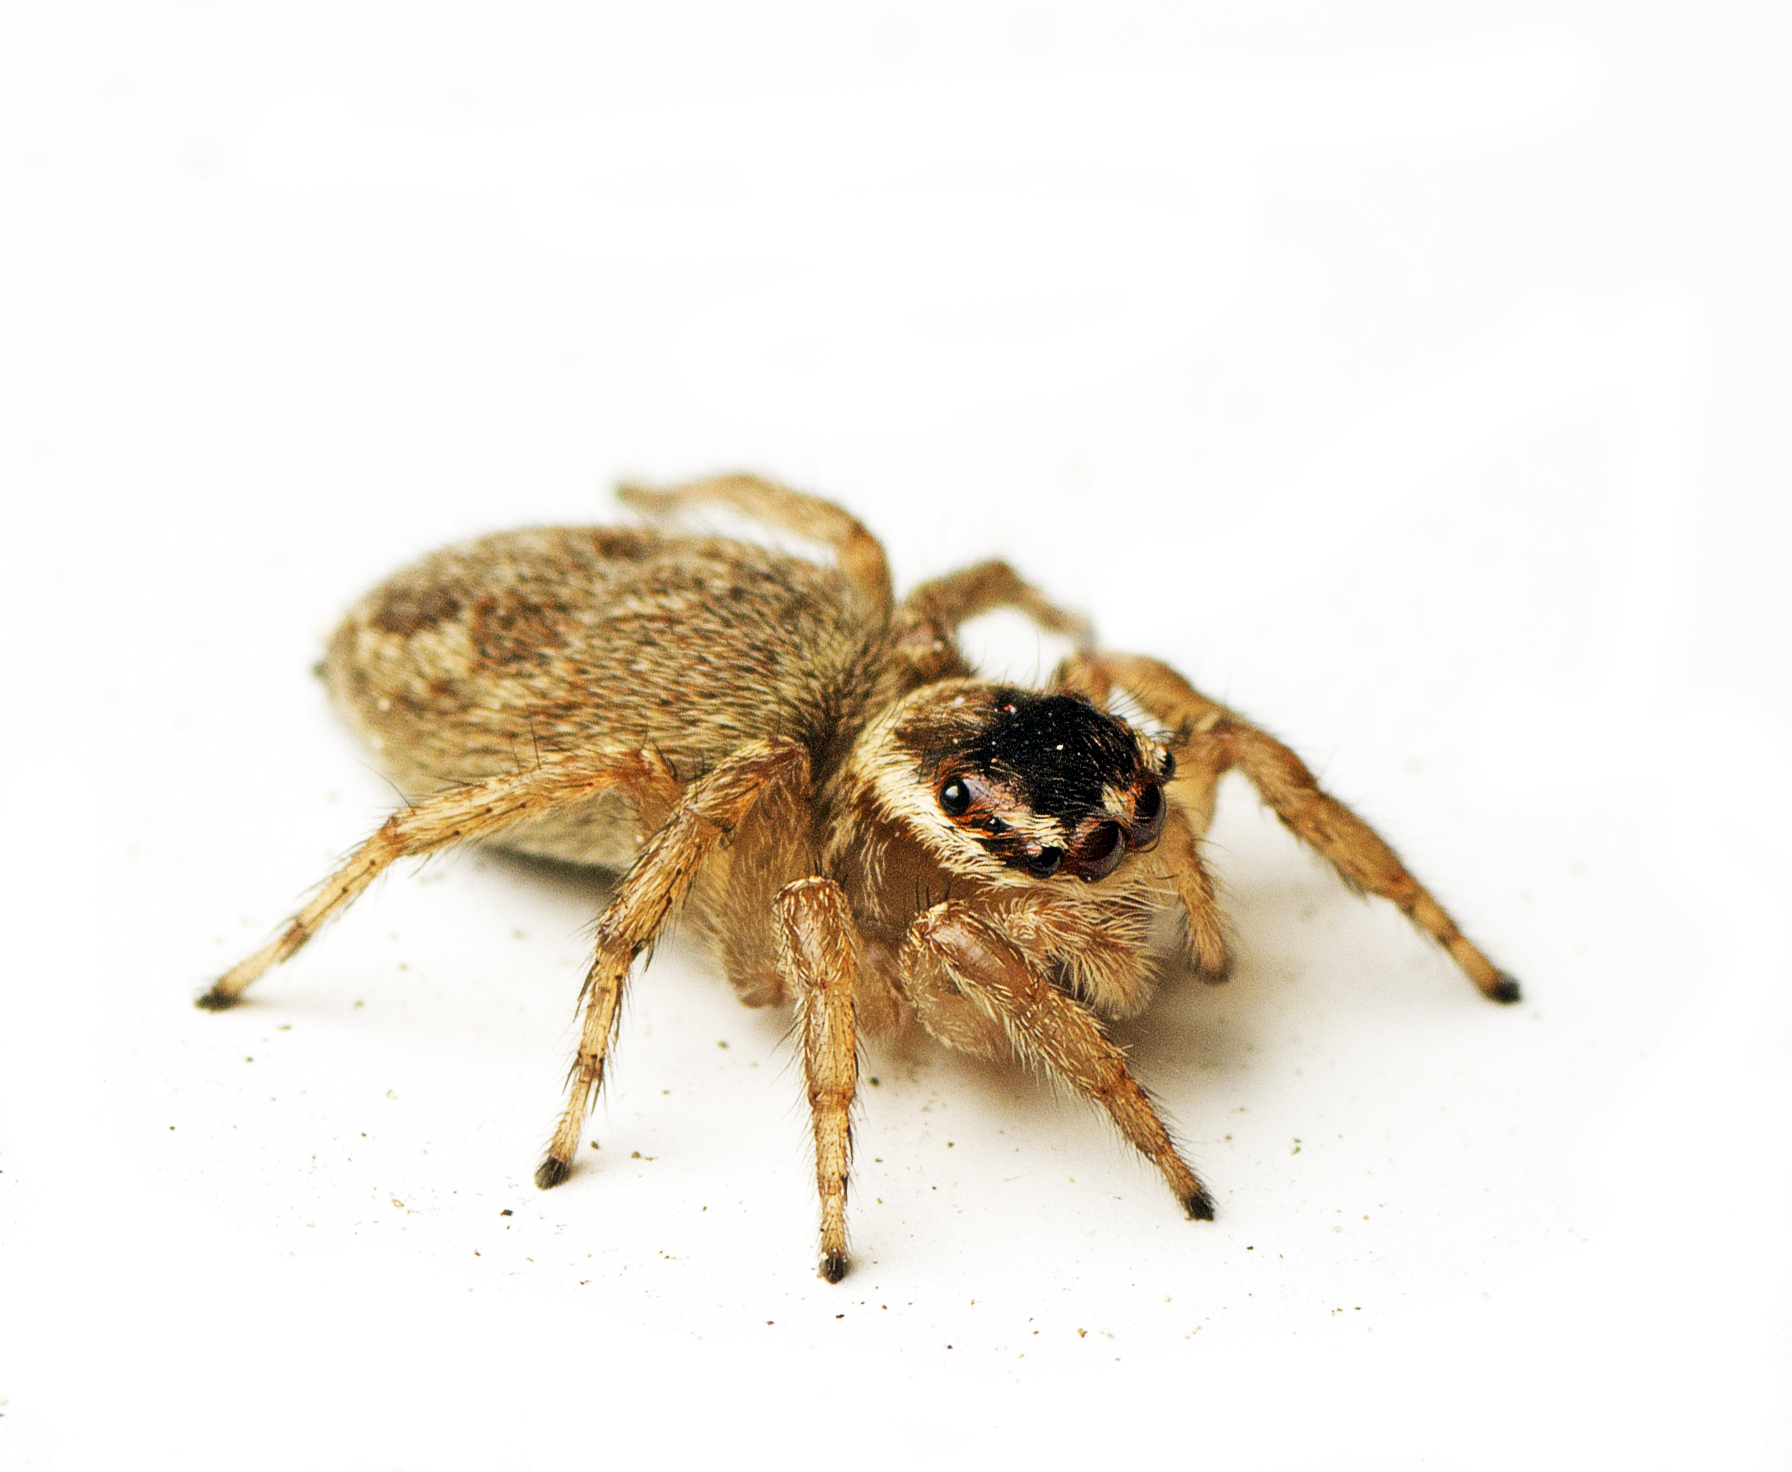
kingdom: Animalia
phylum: Arthropoda
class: Arachnida
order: Araneae
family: Salticidae
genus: Maratus
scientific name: Maratus griseus
